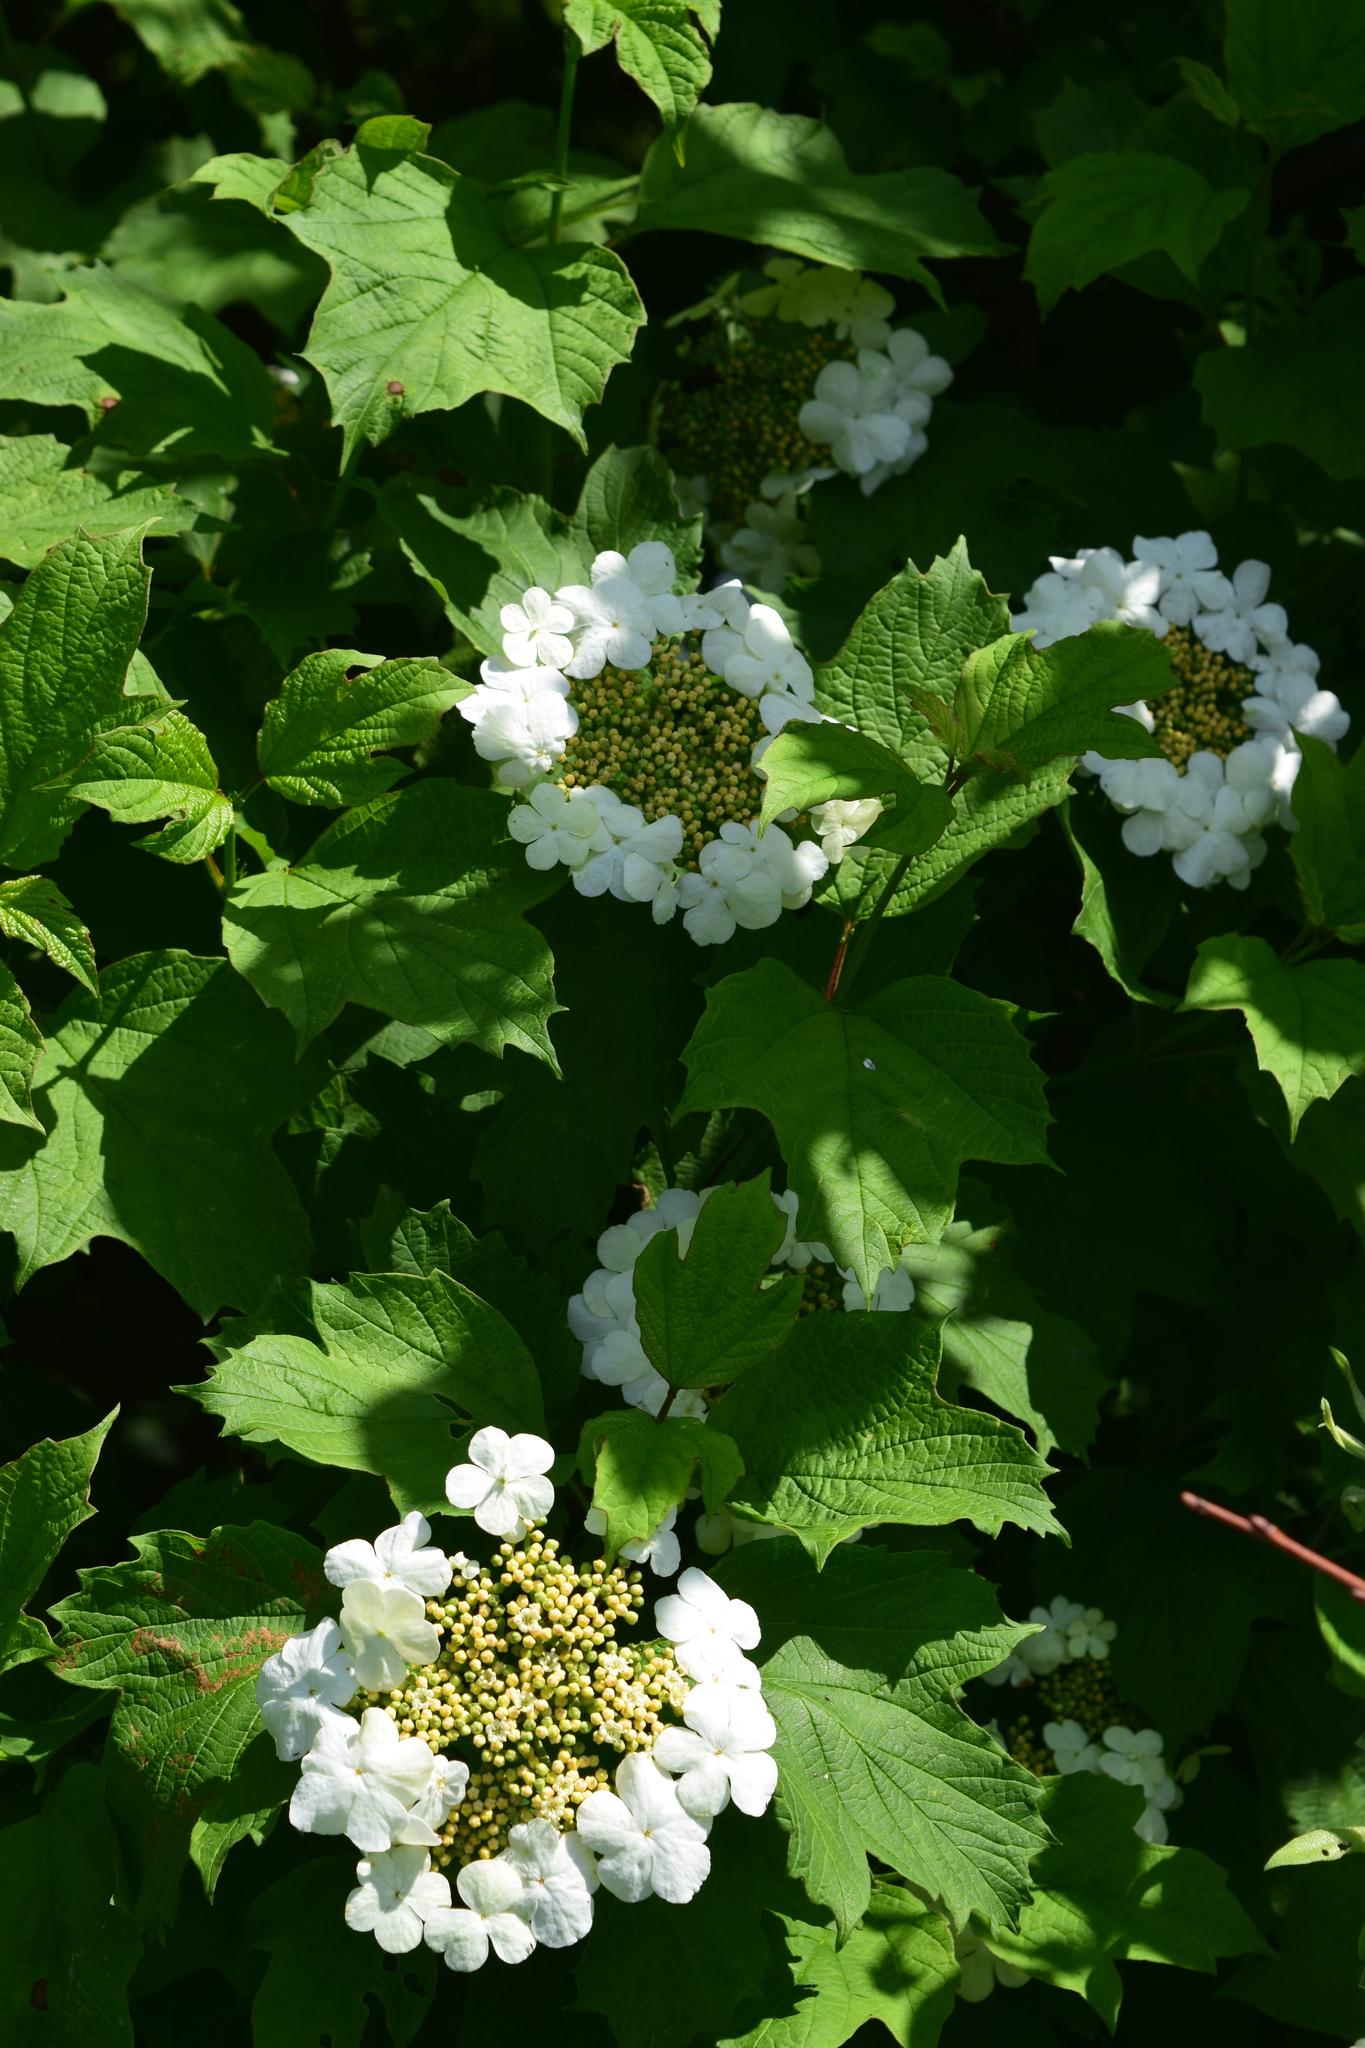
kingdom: Plantae
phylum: Tracheophyta
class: Magnoliopsida
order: Dipsacales
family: Viburnaceae
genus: Viburnum
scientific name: Viburnum opulus
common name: Guelder-rose
